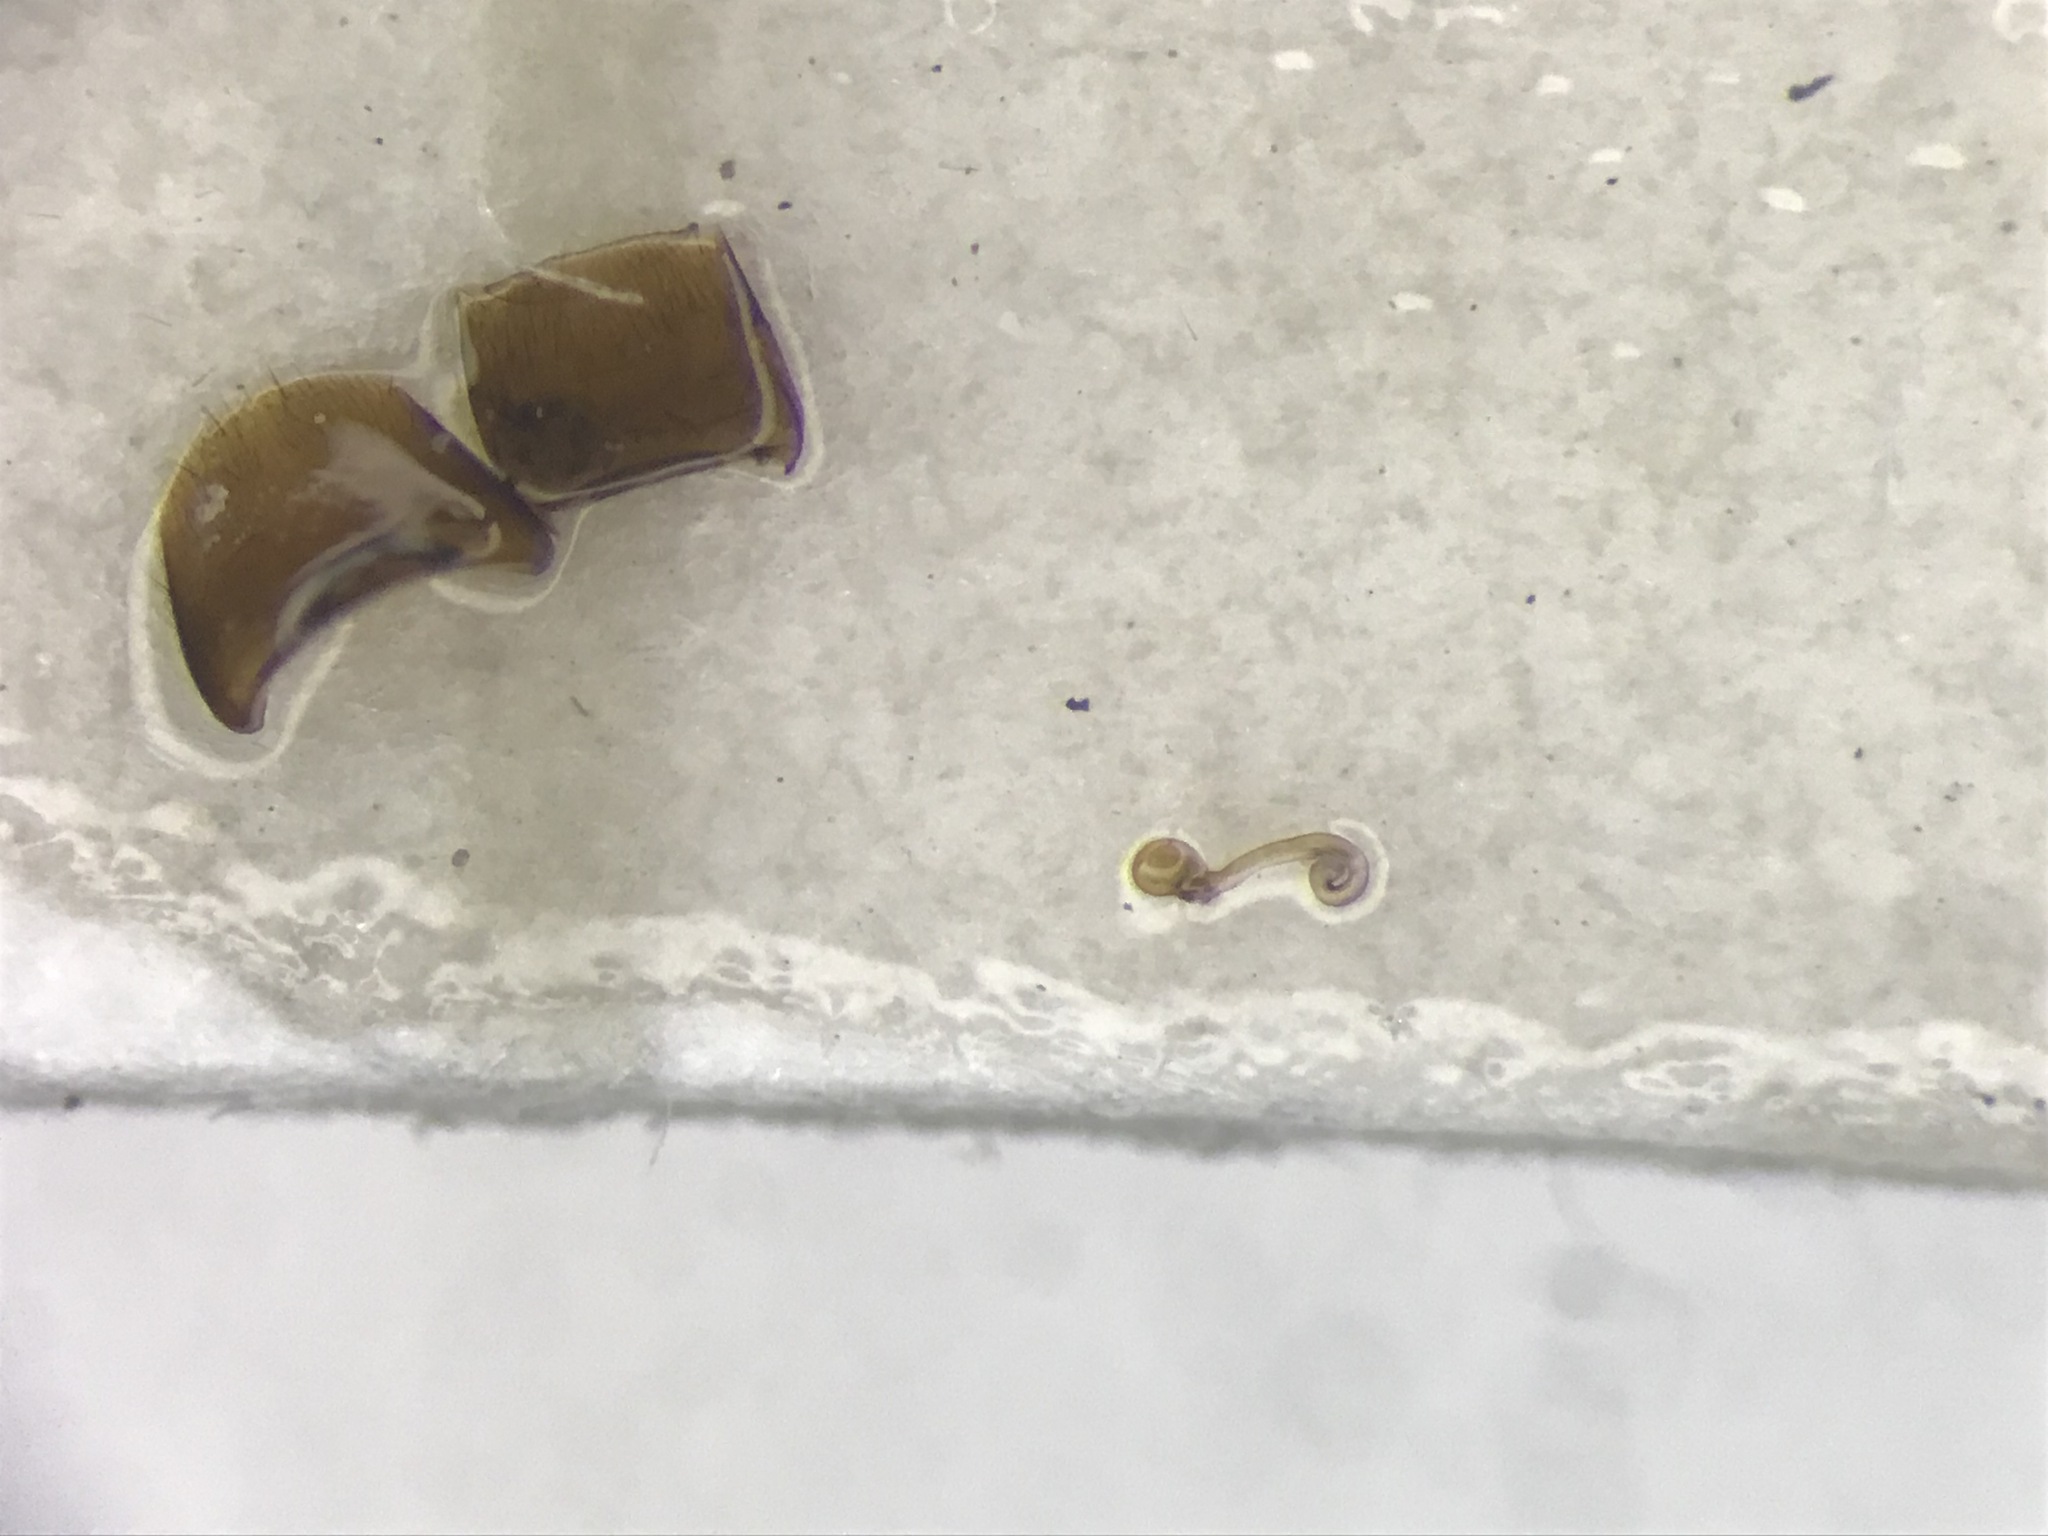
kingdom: Animalia
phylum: Arthropoda
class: Insecta
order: Coleoptera
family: Staphylinidae
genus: Dinaraea
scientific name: Dinaraea angustula
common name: Staphylinid beetle
